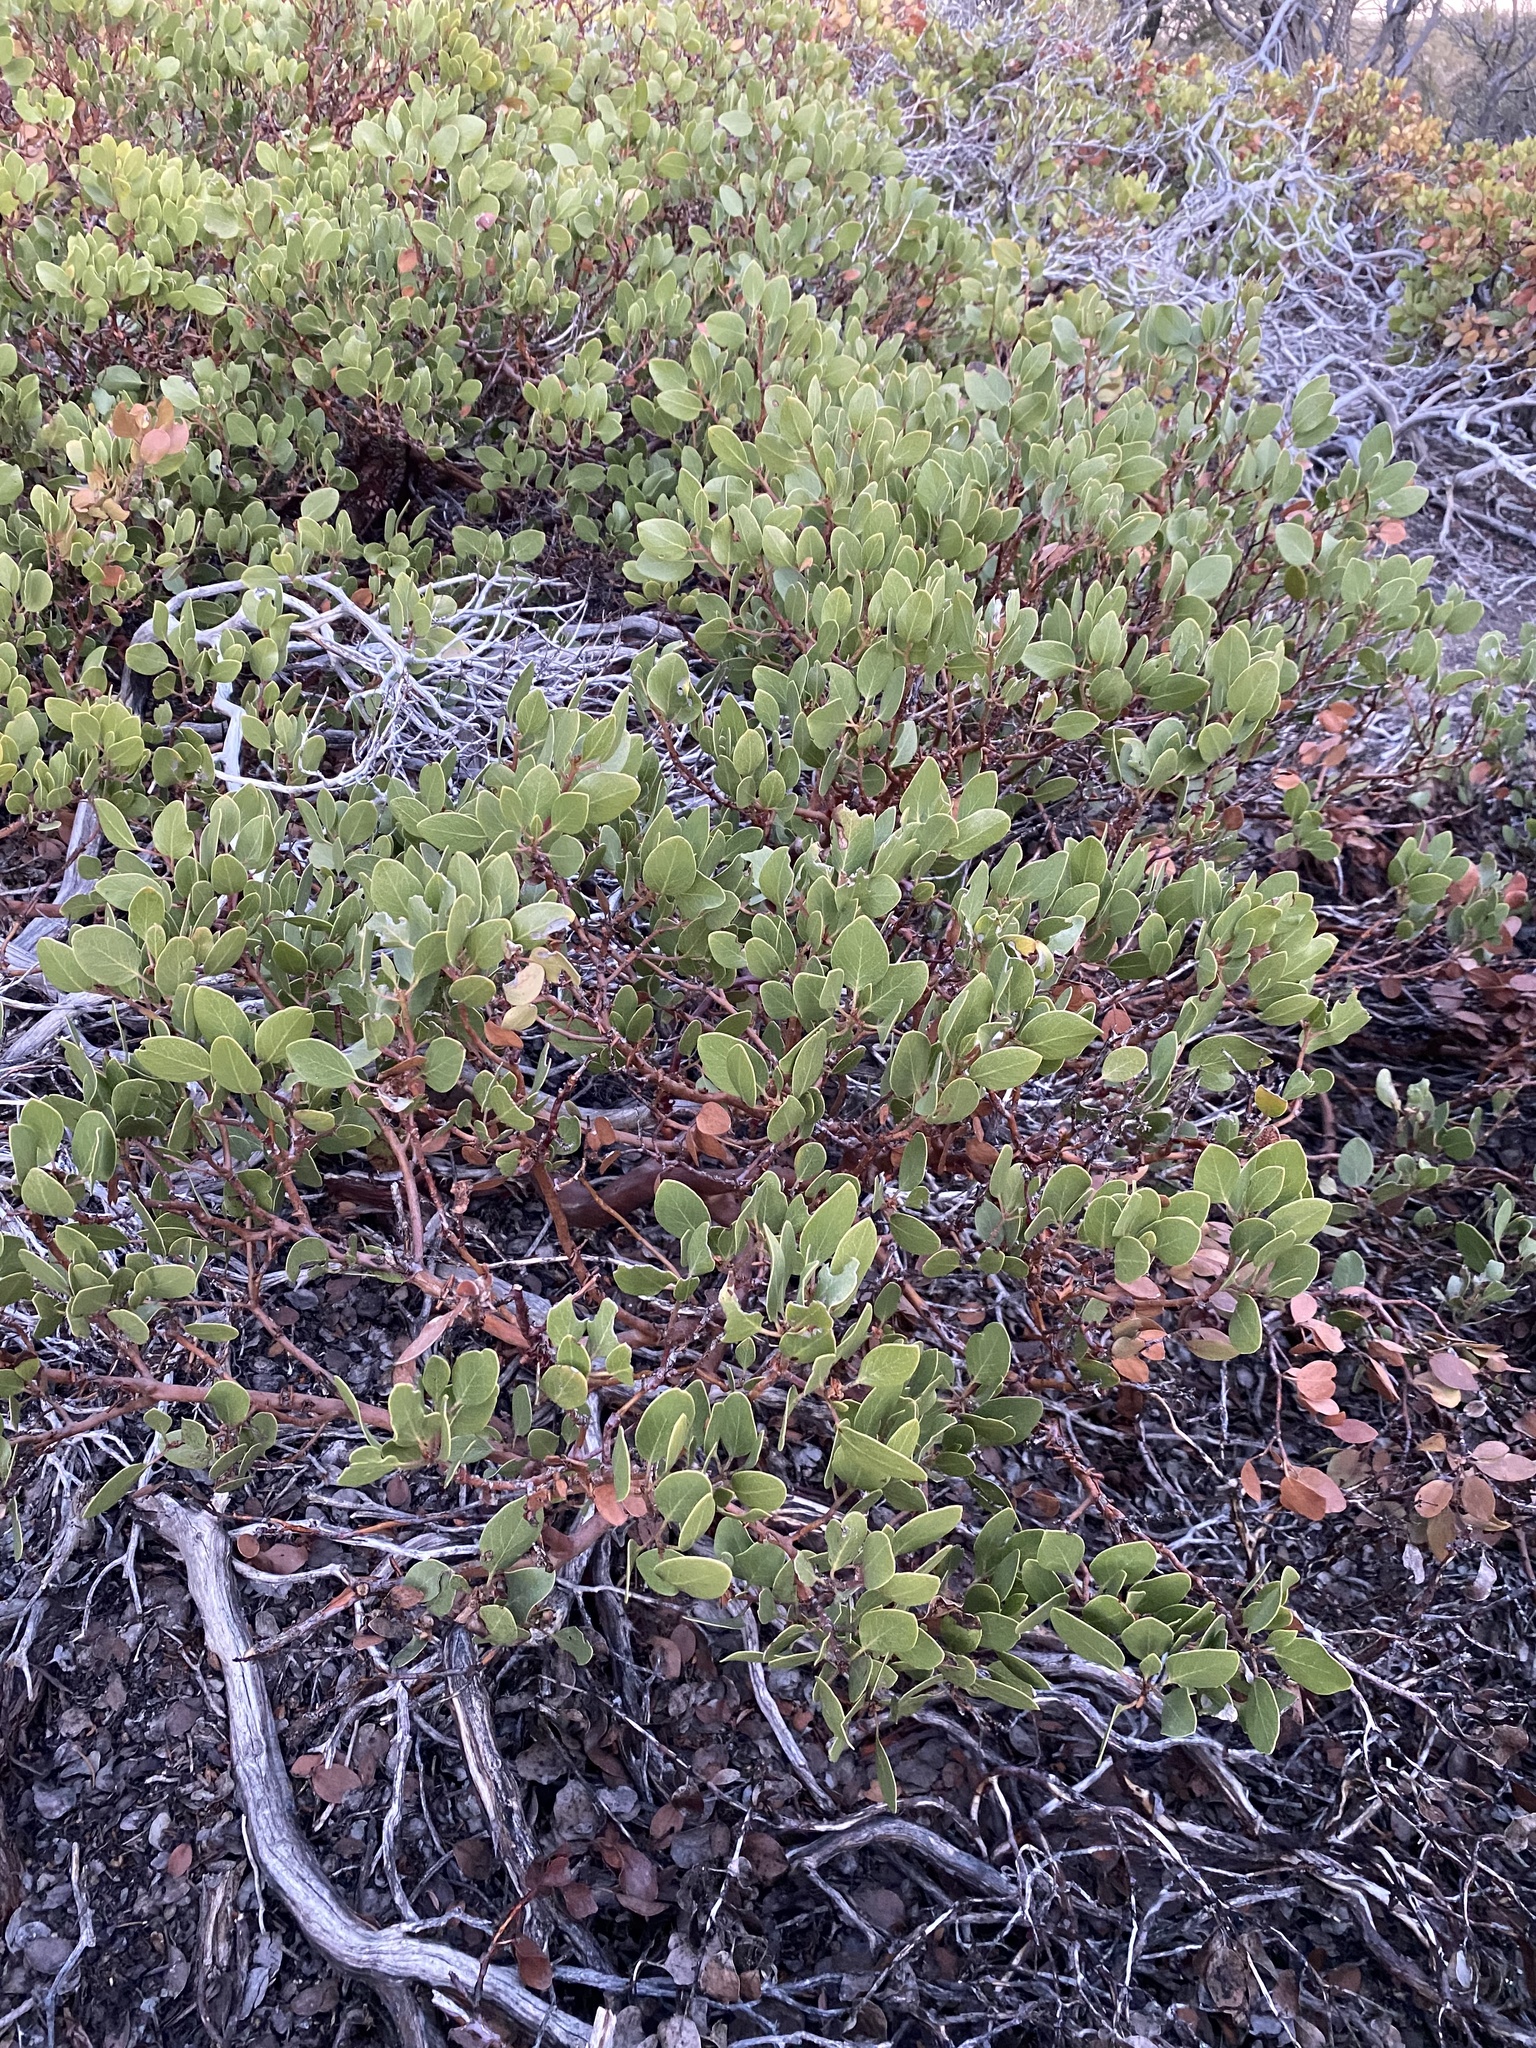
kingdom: Plantae
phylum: Tracheophyta
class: Magnoliopsida
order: Ericales
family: Ericaceae
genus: Arctostaphylos
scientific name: Arctostaphylos patula
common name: Green-leaf manzanita
